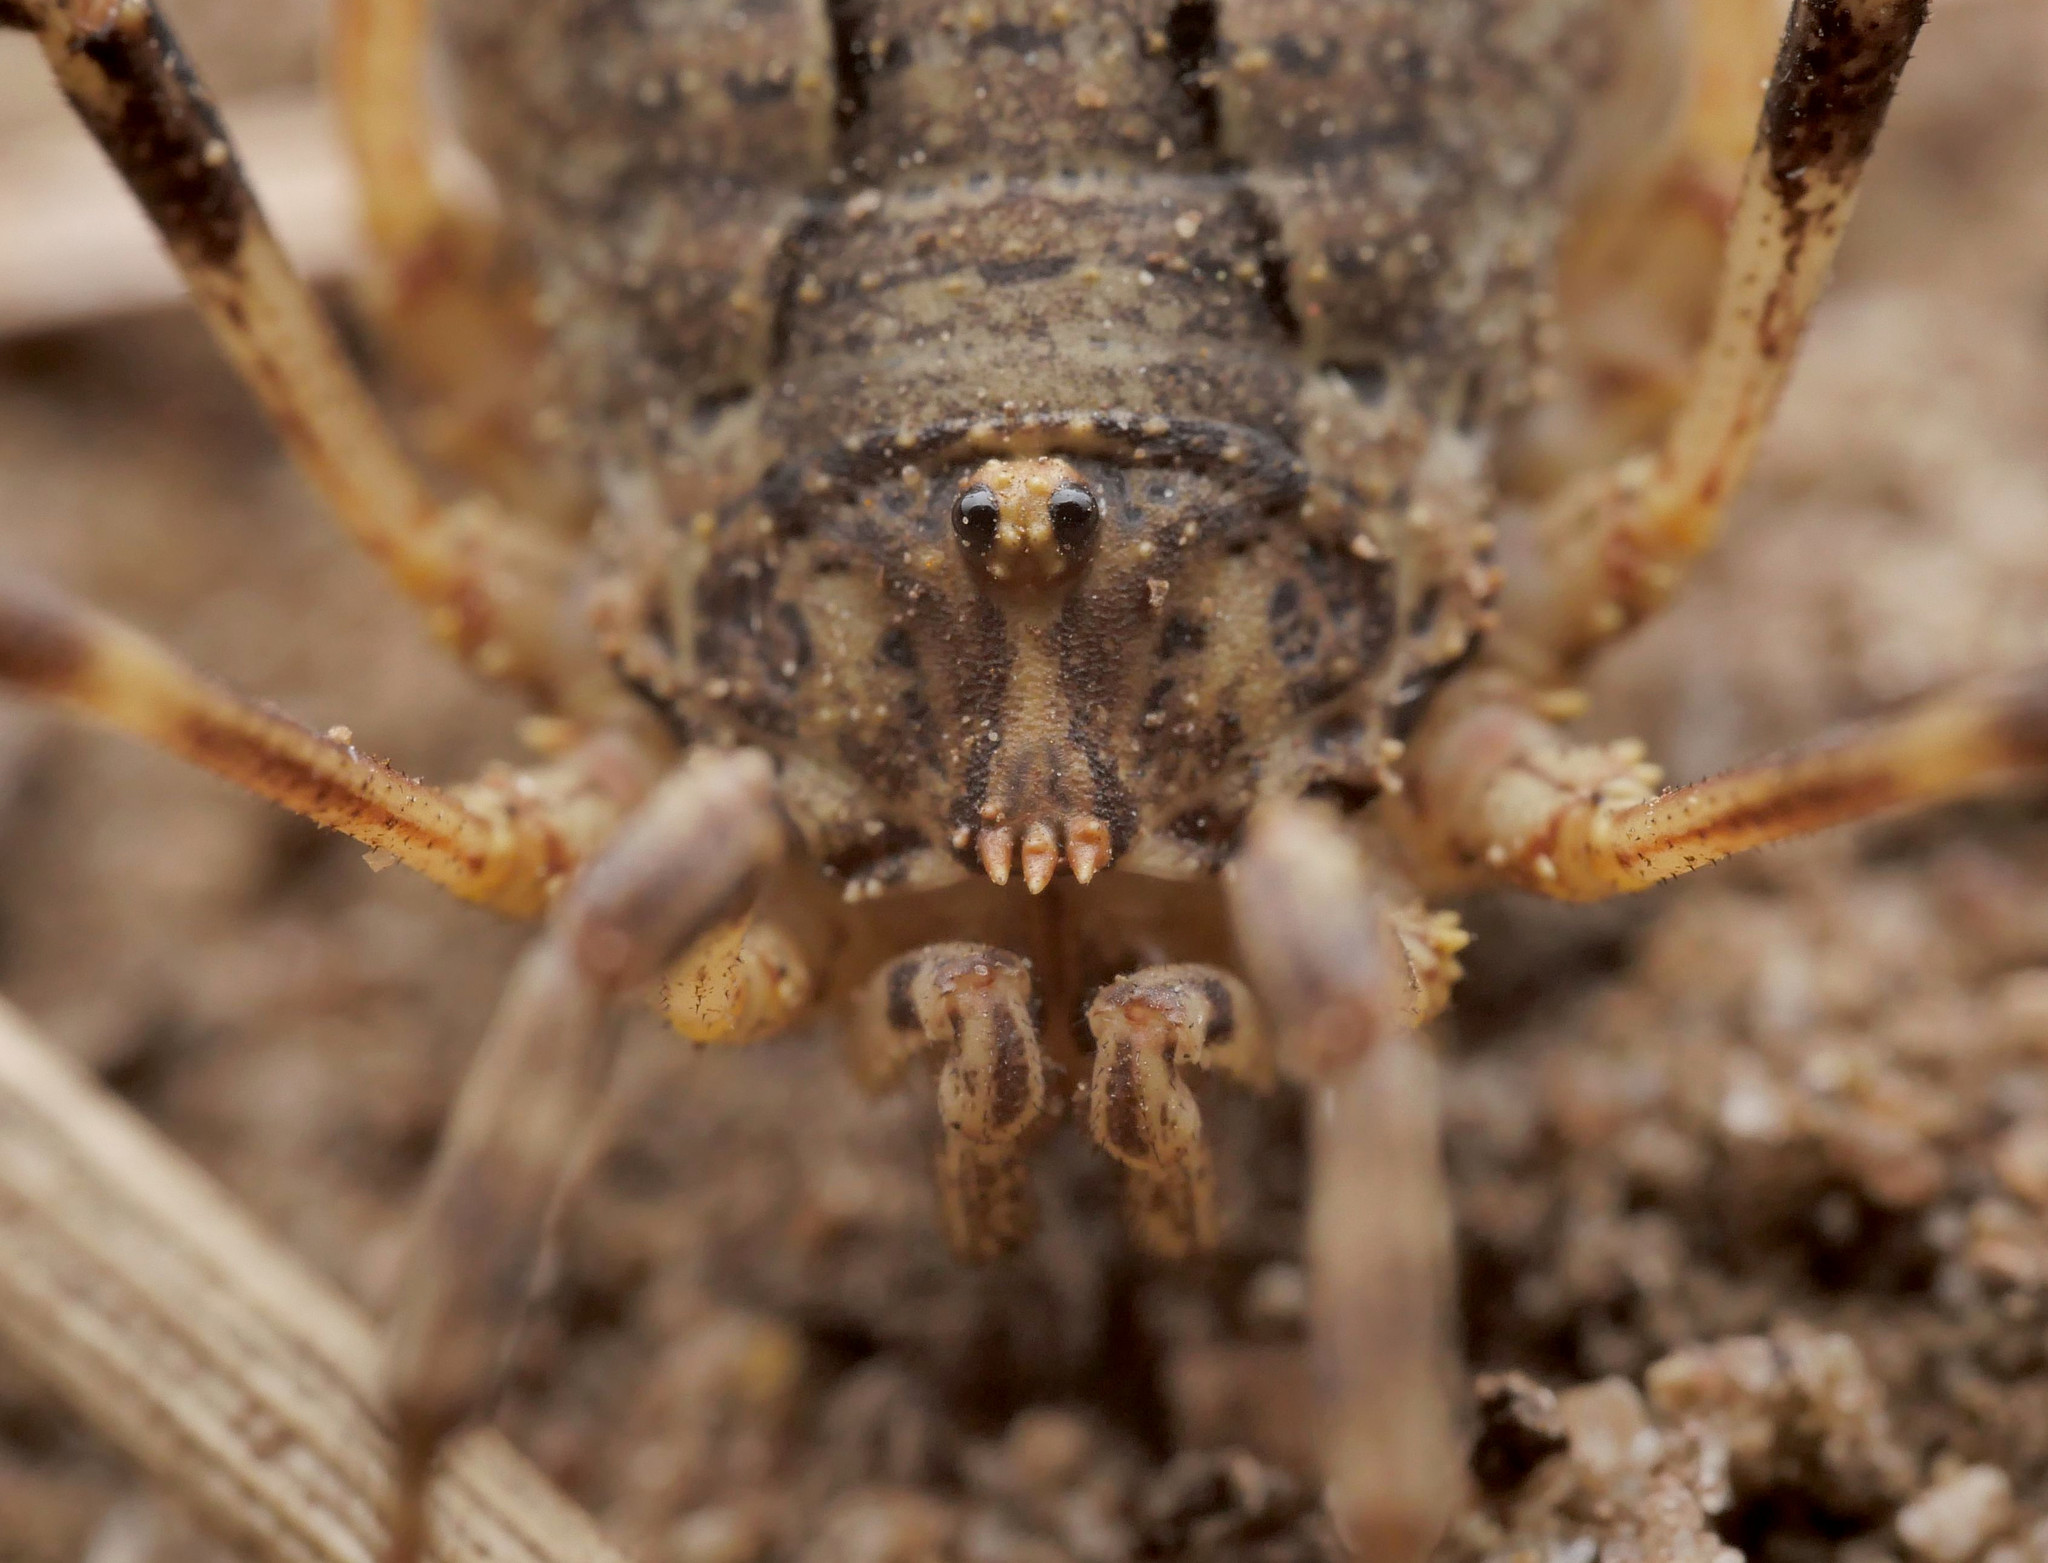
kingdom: Animalia
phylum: Arthropoda
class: Arachnida
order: Opiliones
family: Phalangiidae
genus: Odiellus
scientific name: Odiellus spinosus
